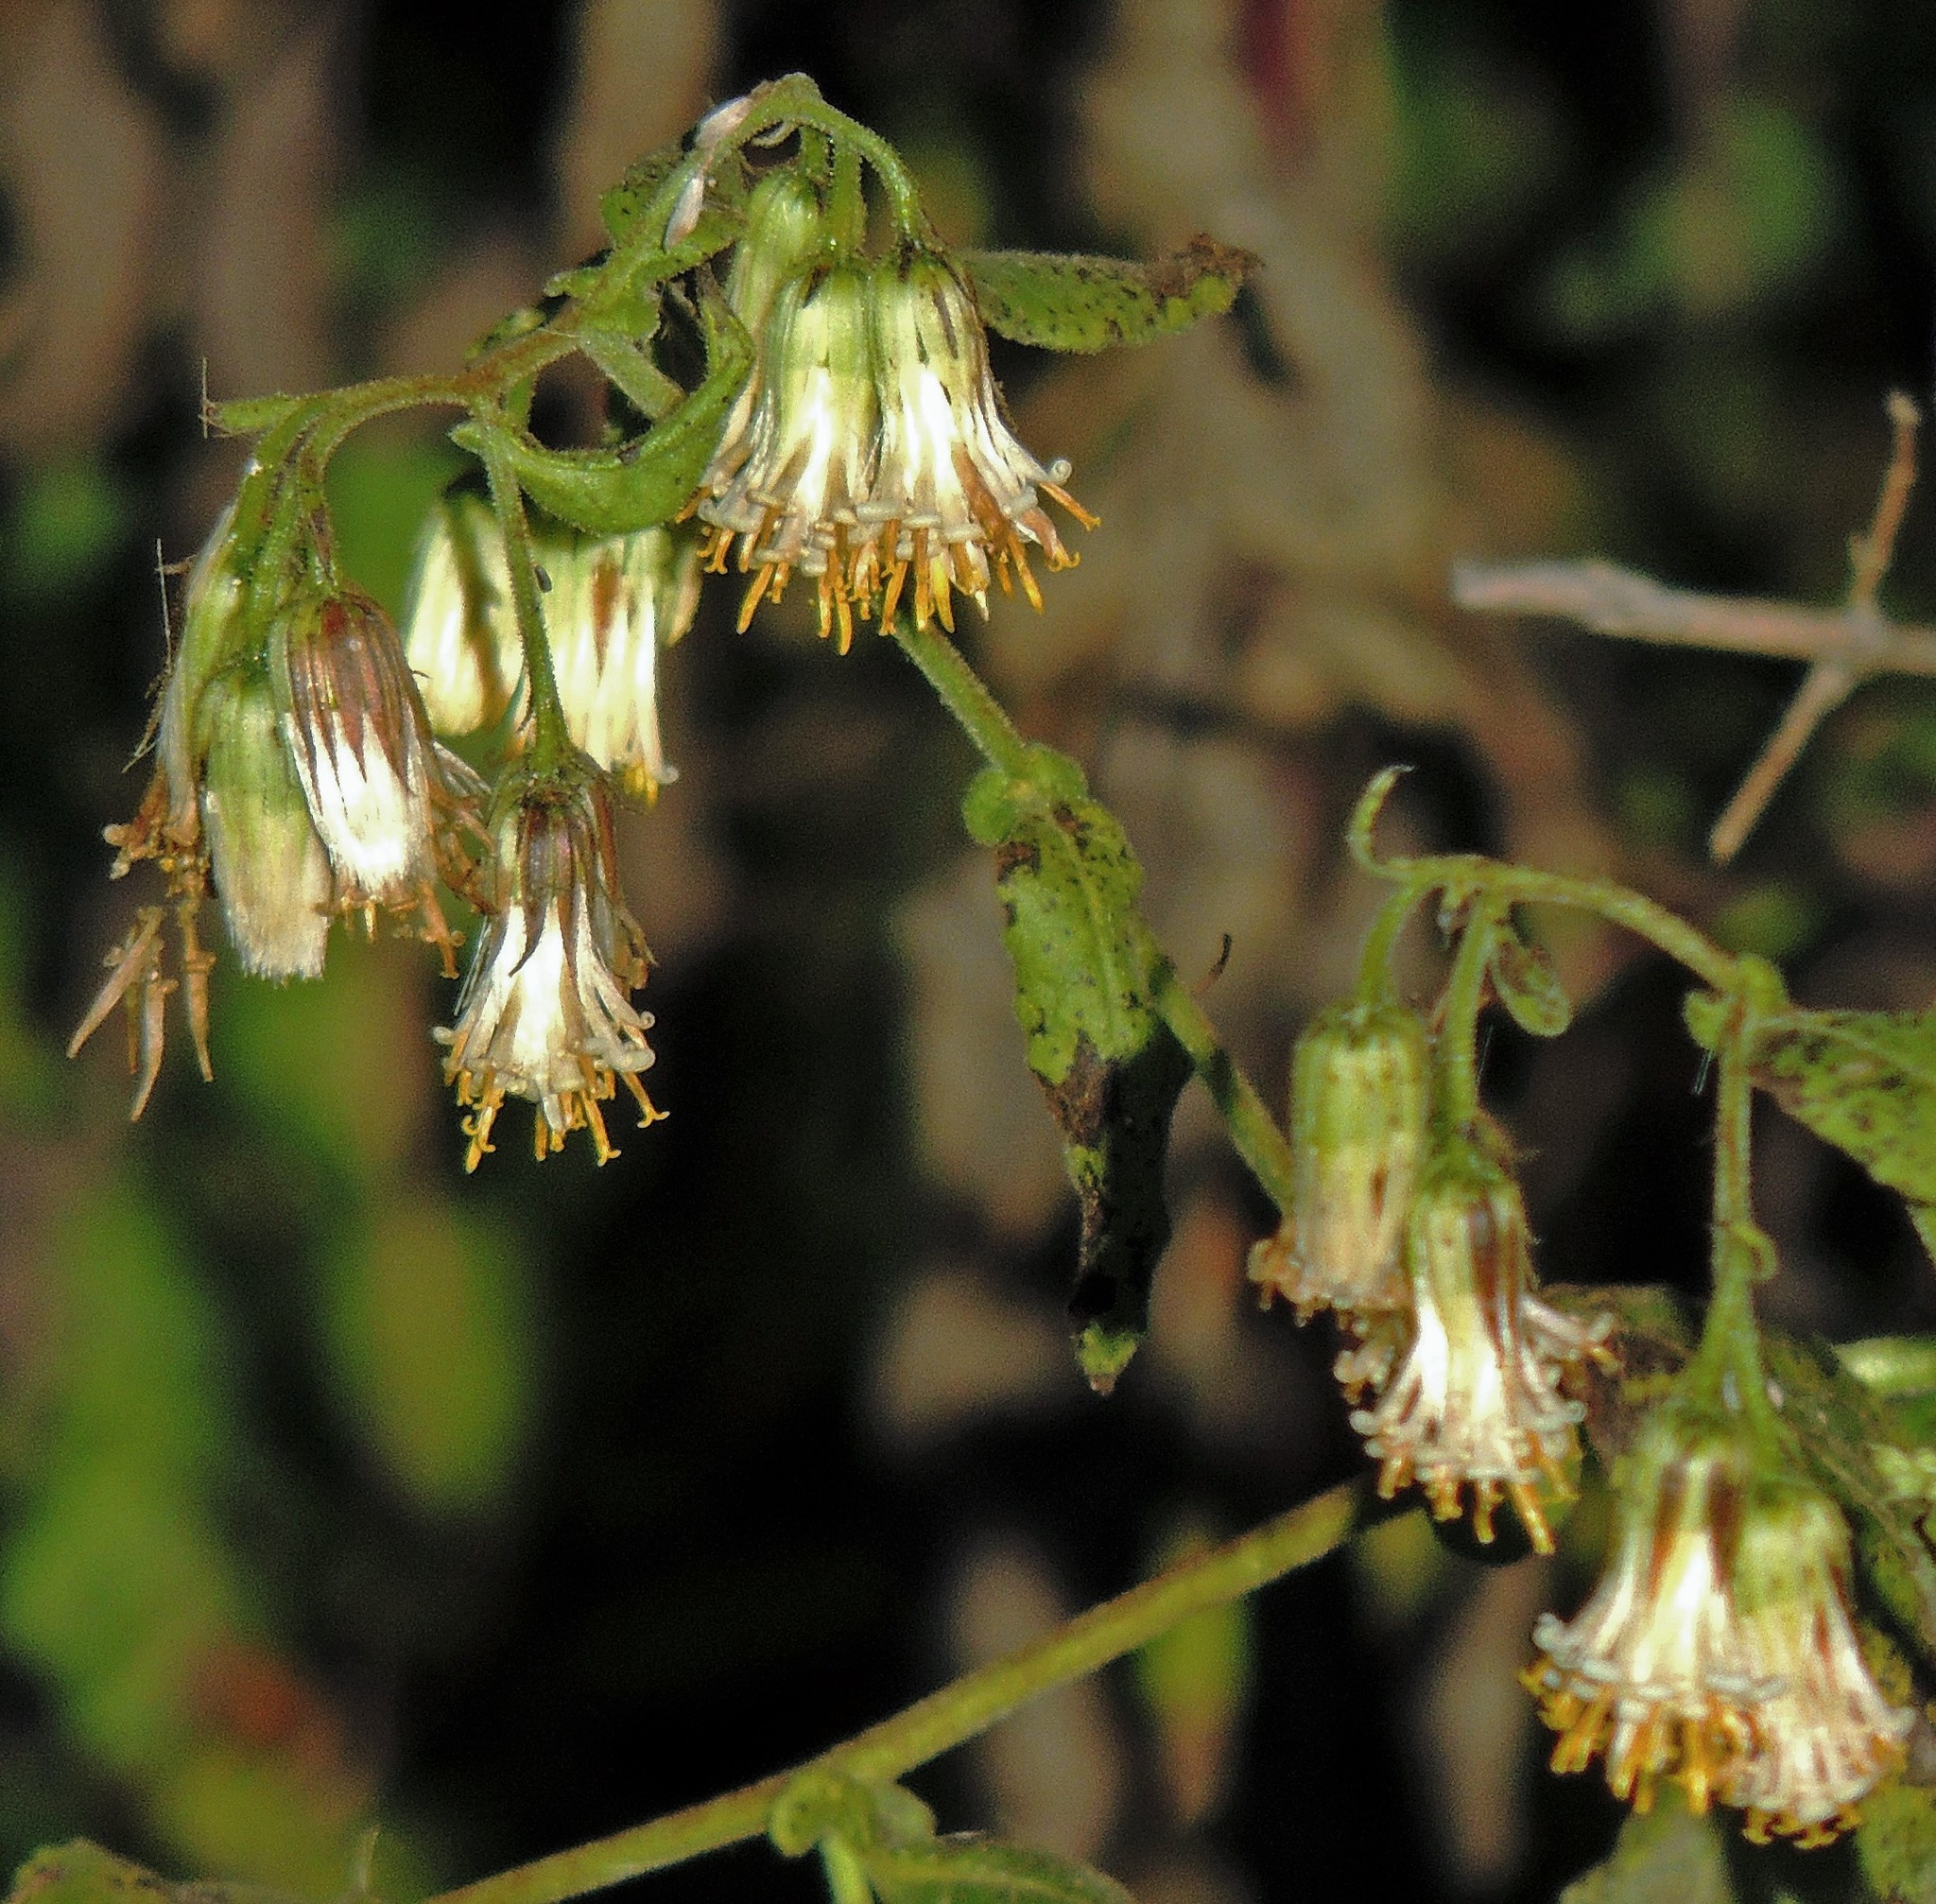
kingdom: Plantae
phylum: Tracheophyta
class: Magnoliopsida
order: Asterales
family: Asteraceae
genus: Trixis
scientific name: Trixis grisebachii
